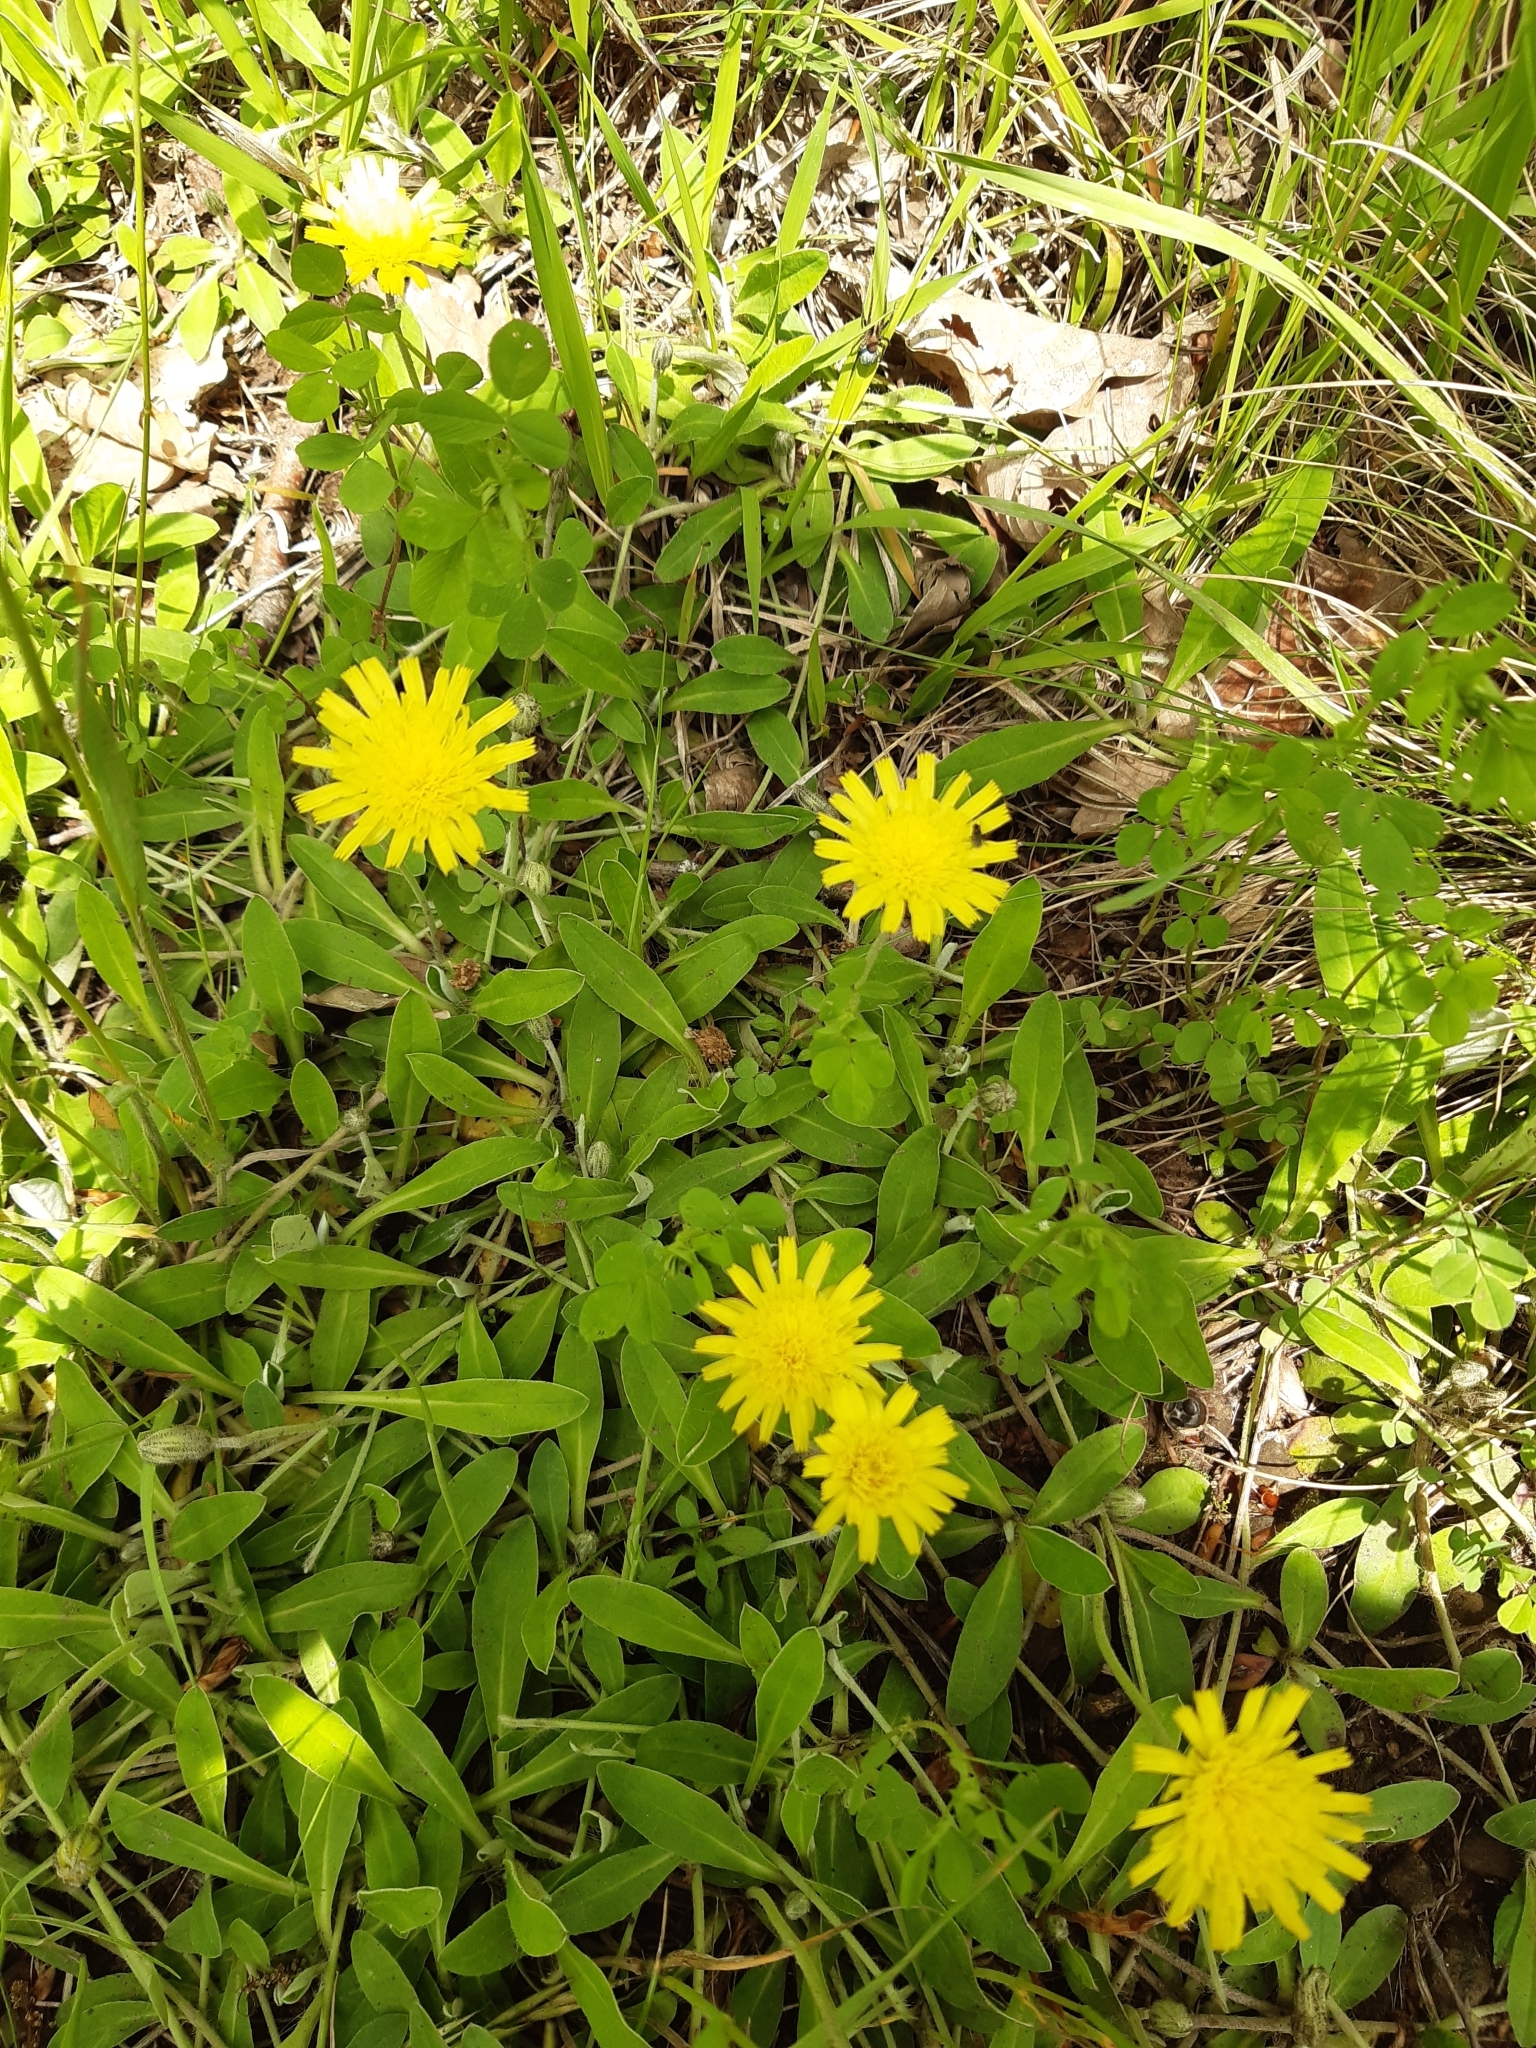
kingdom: Plantae
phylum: Tracheophyta
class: Magnoliopsida
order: Asterales
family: Asteraceae
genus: Pilosella
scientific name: Pilosella officinarum
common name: Mouse-ear hawkweed
